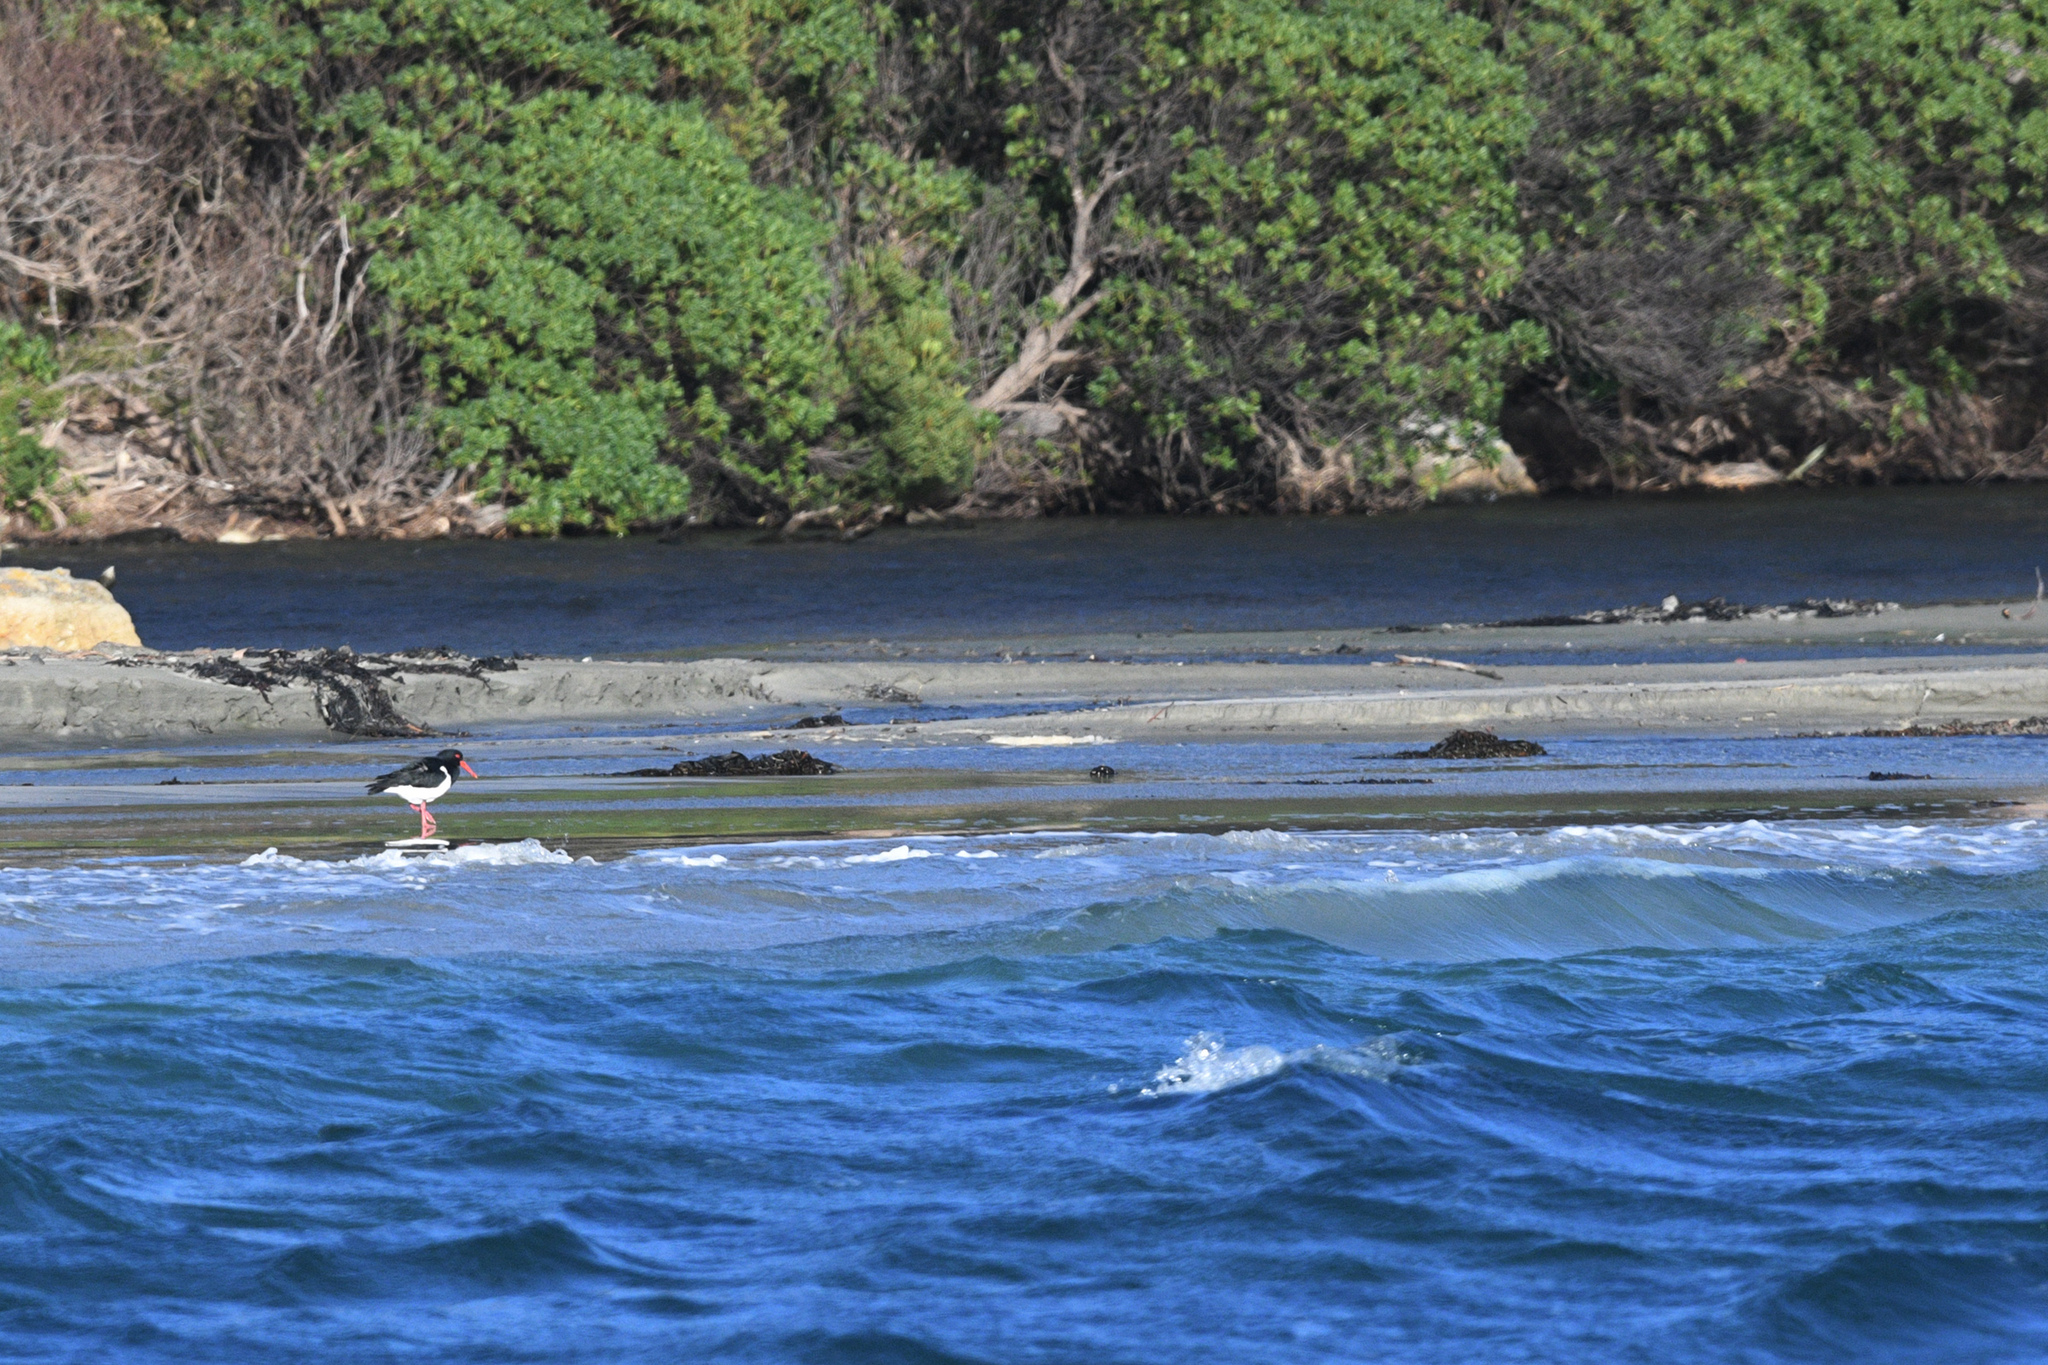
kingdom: Animalia
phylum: Chordata
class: Aves
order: Charadriiformes
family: Haematopodidae
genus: Haematopus
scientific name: Haematopus longirostris
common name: Pied oystercatcher
